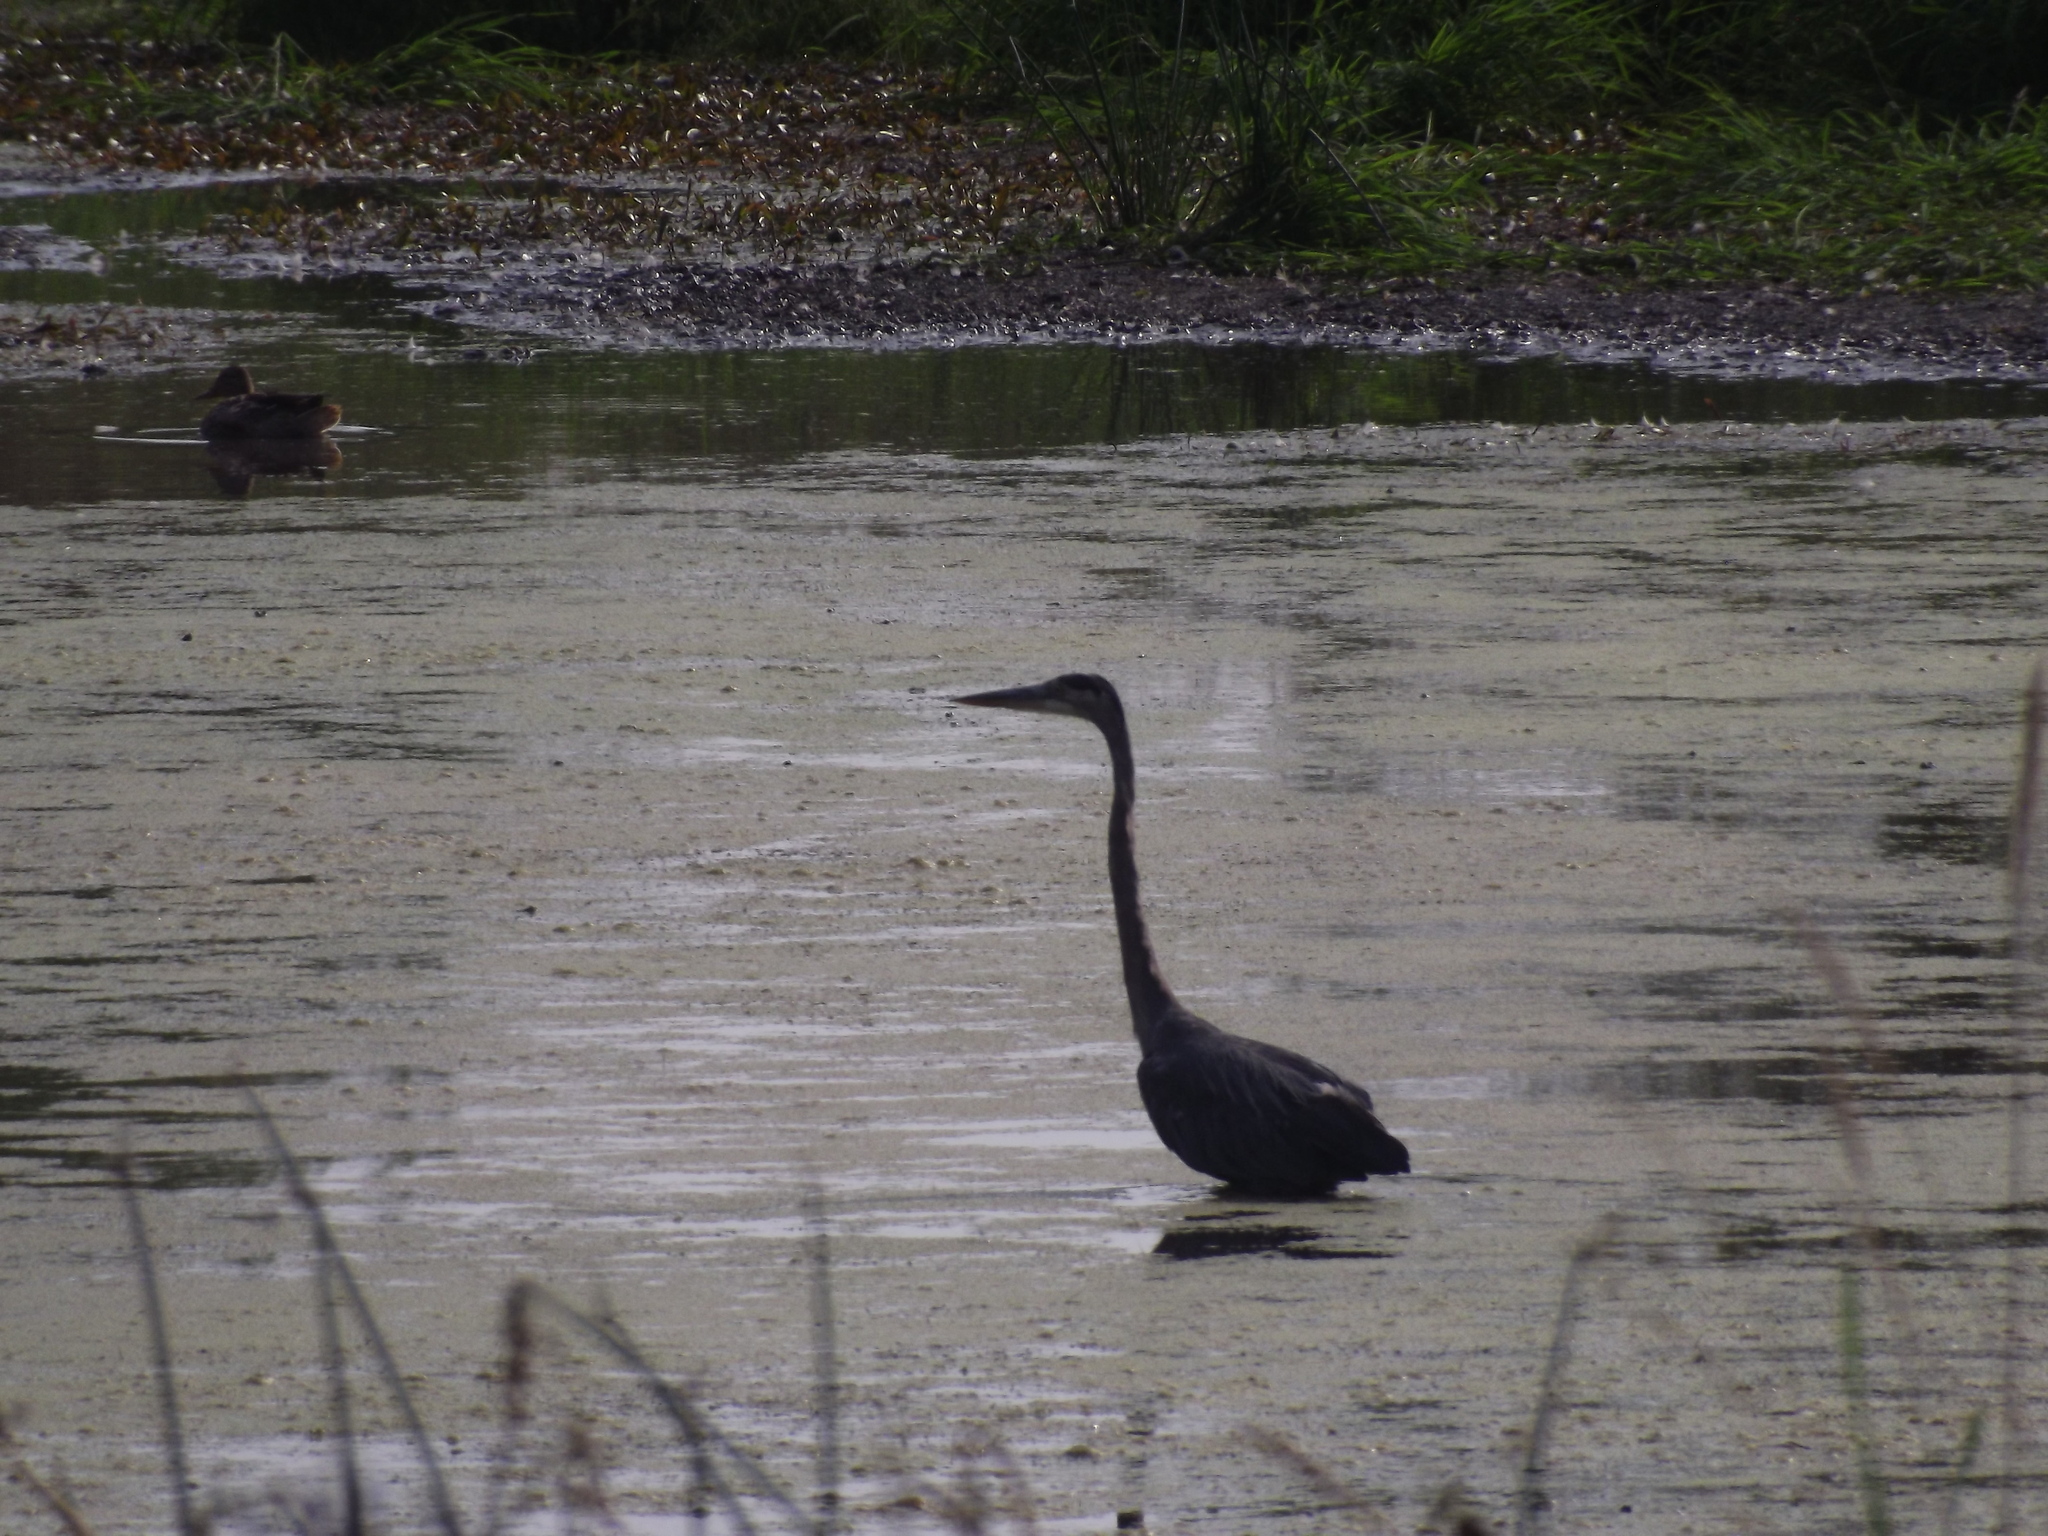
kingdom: Animalia
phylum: Chordata
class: Aves
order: Pelecaniformes
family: Ardeidae
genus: Ardea
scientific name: Ardea herodias
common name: Great blue heron
